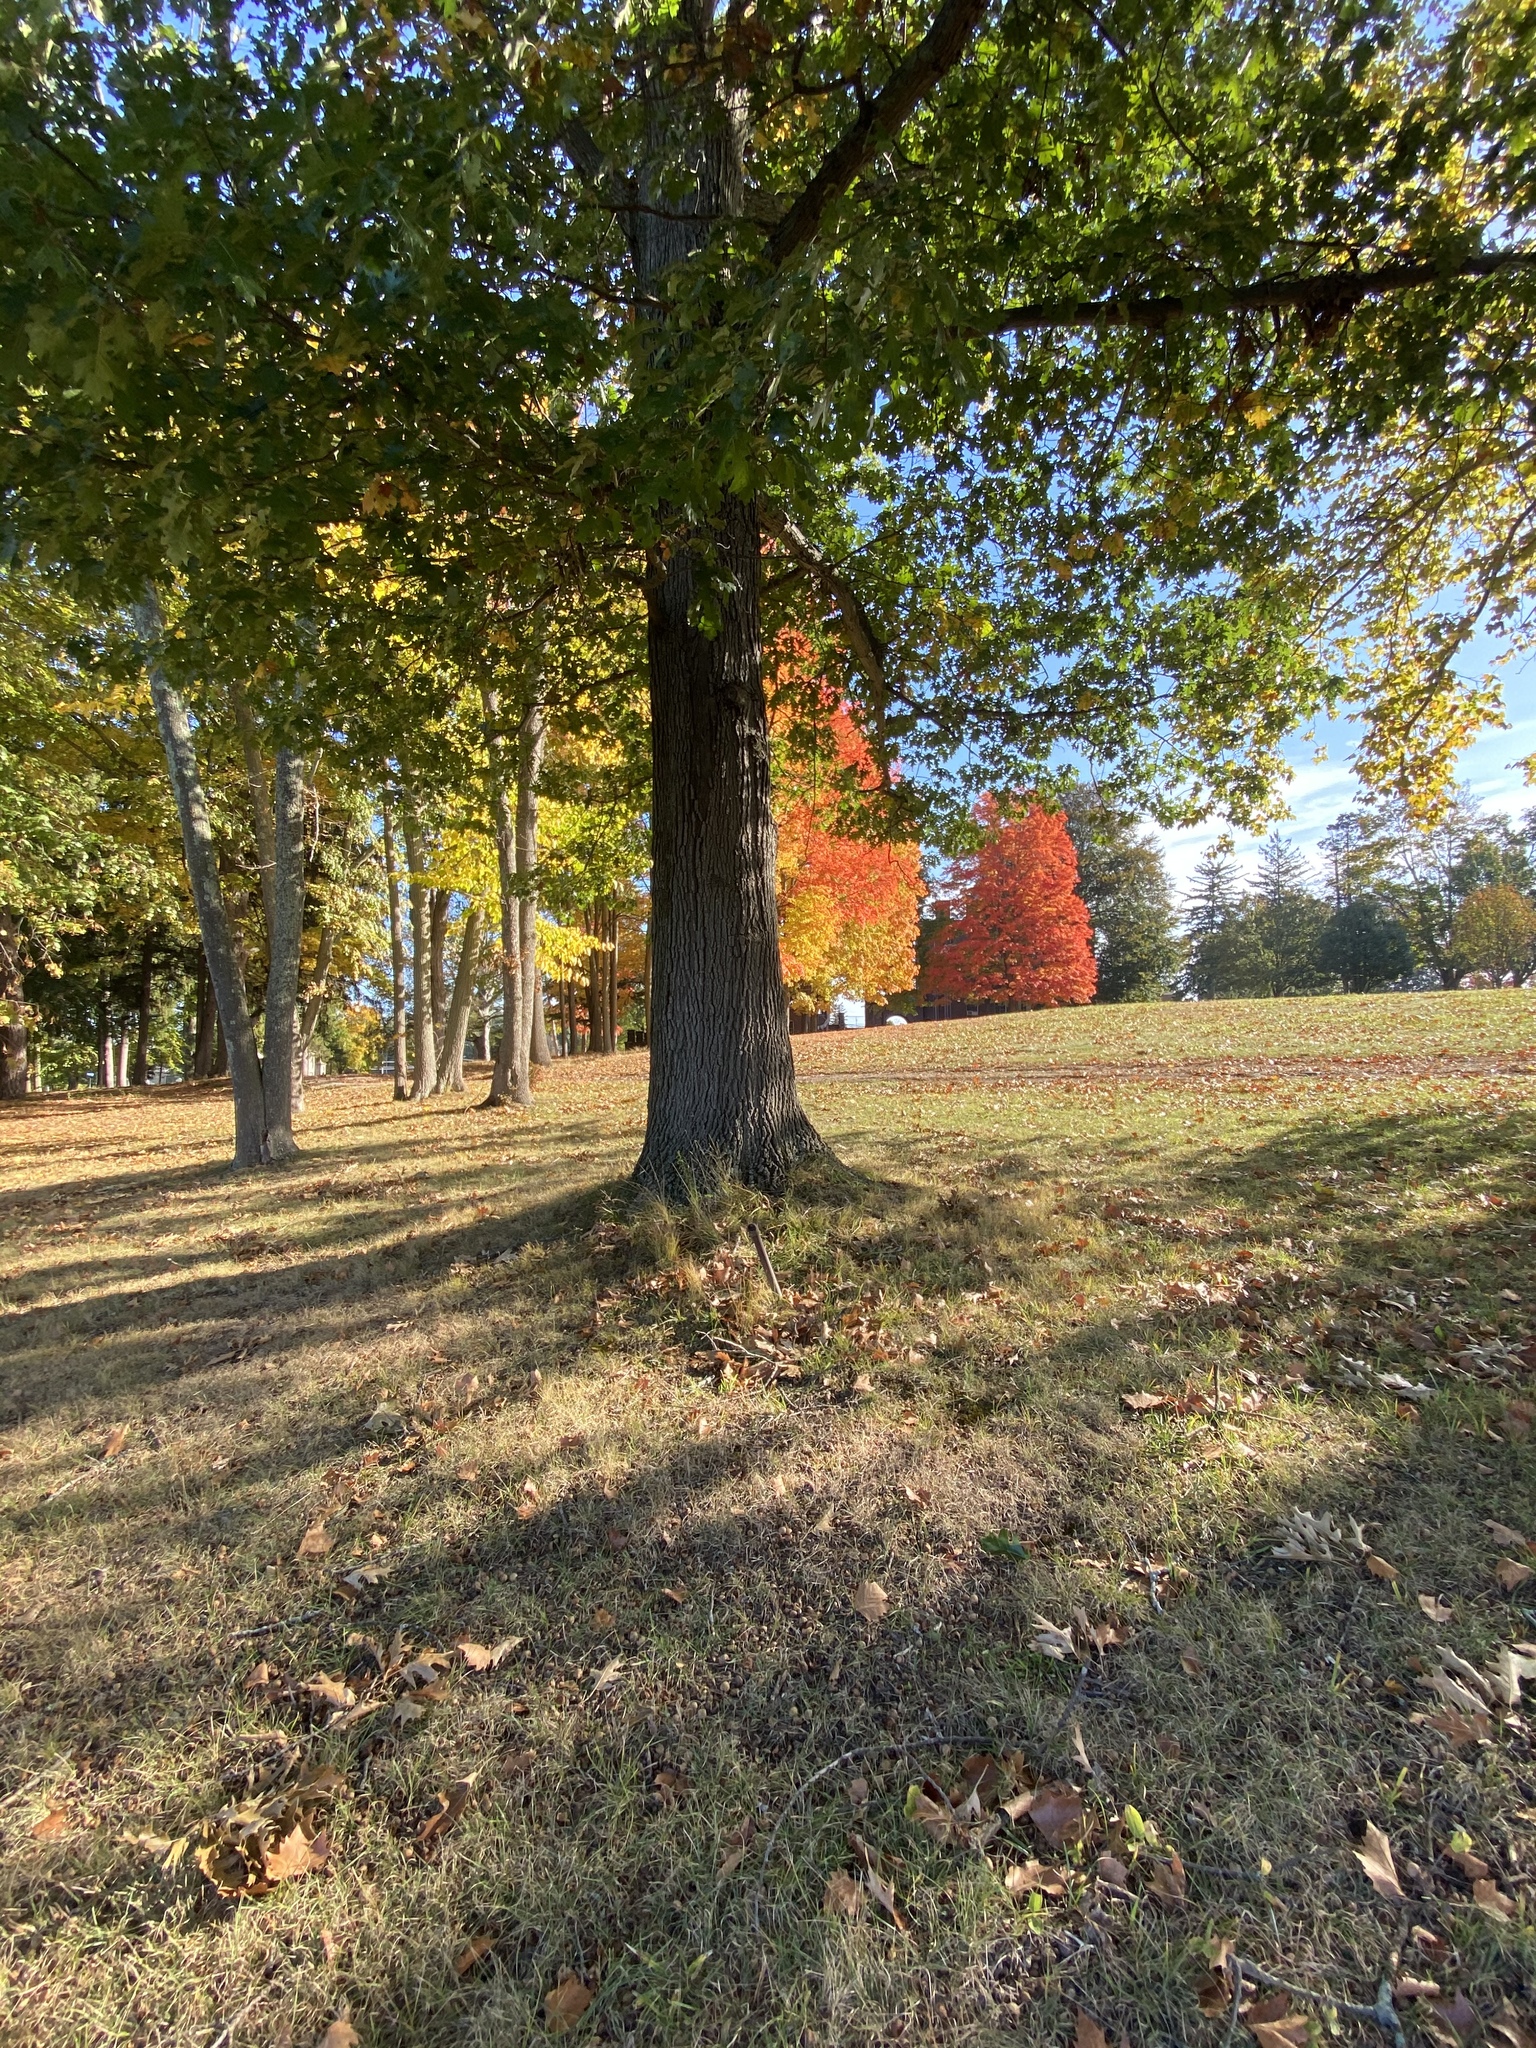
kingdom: Plantae
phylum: Tracheophyta
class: Magnoliopsida
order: Fagales
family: Fagaceae
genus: Quercus
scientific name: Quercus rubra
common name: Red oak
